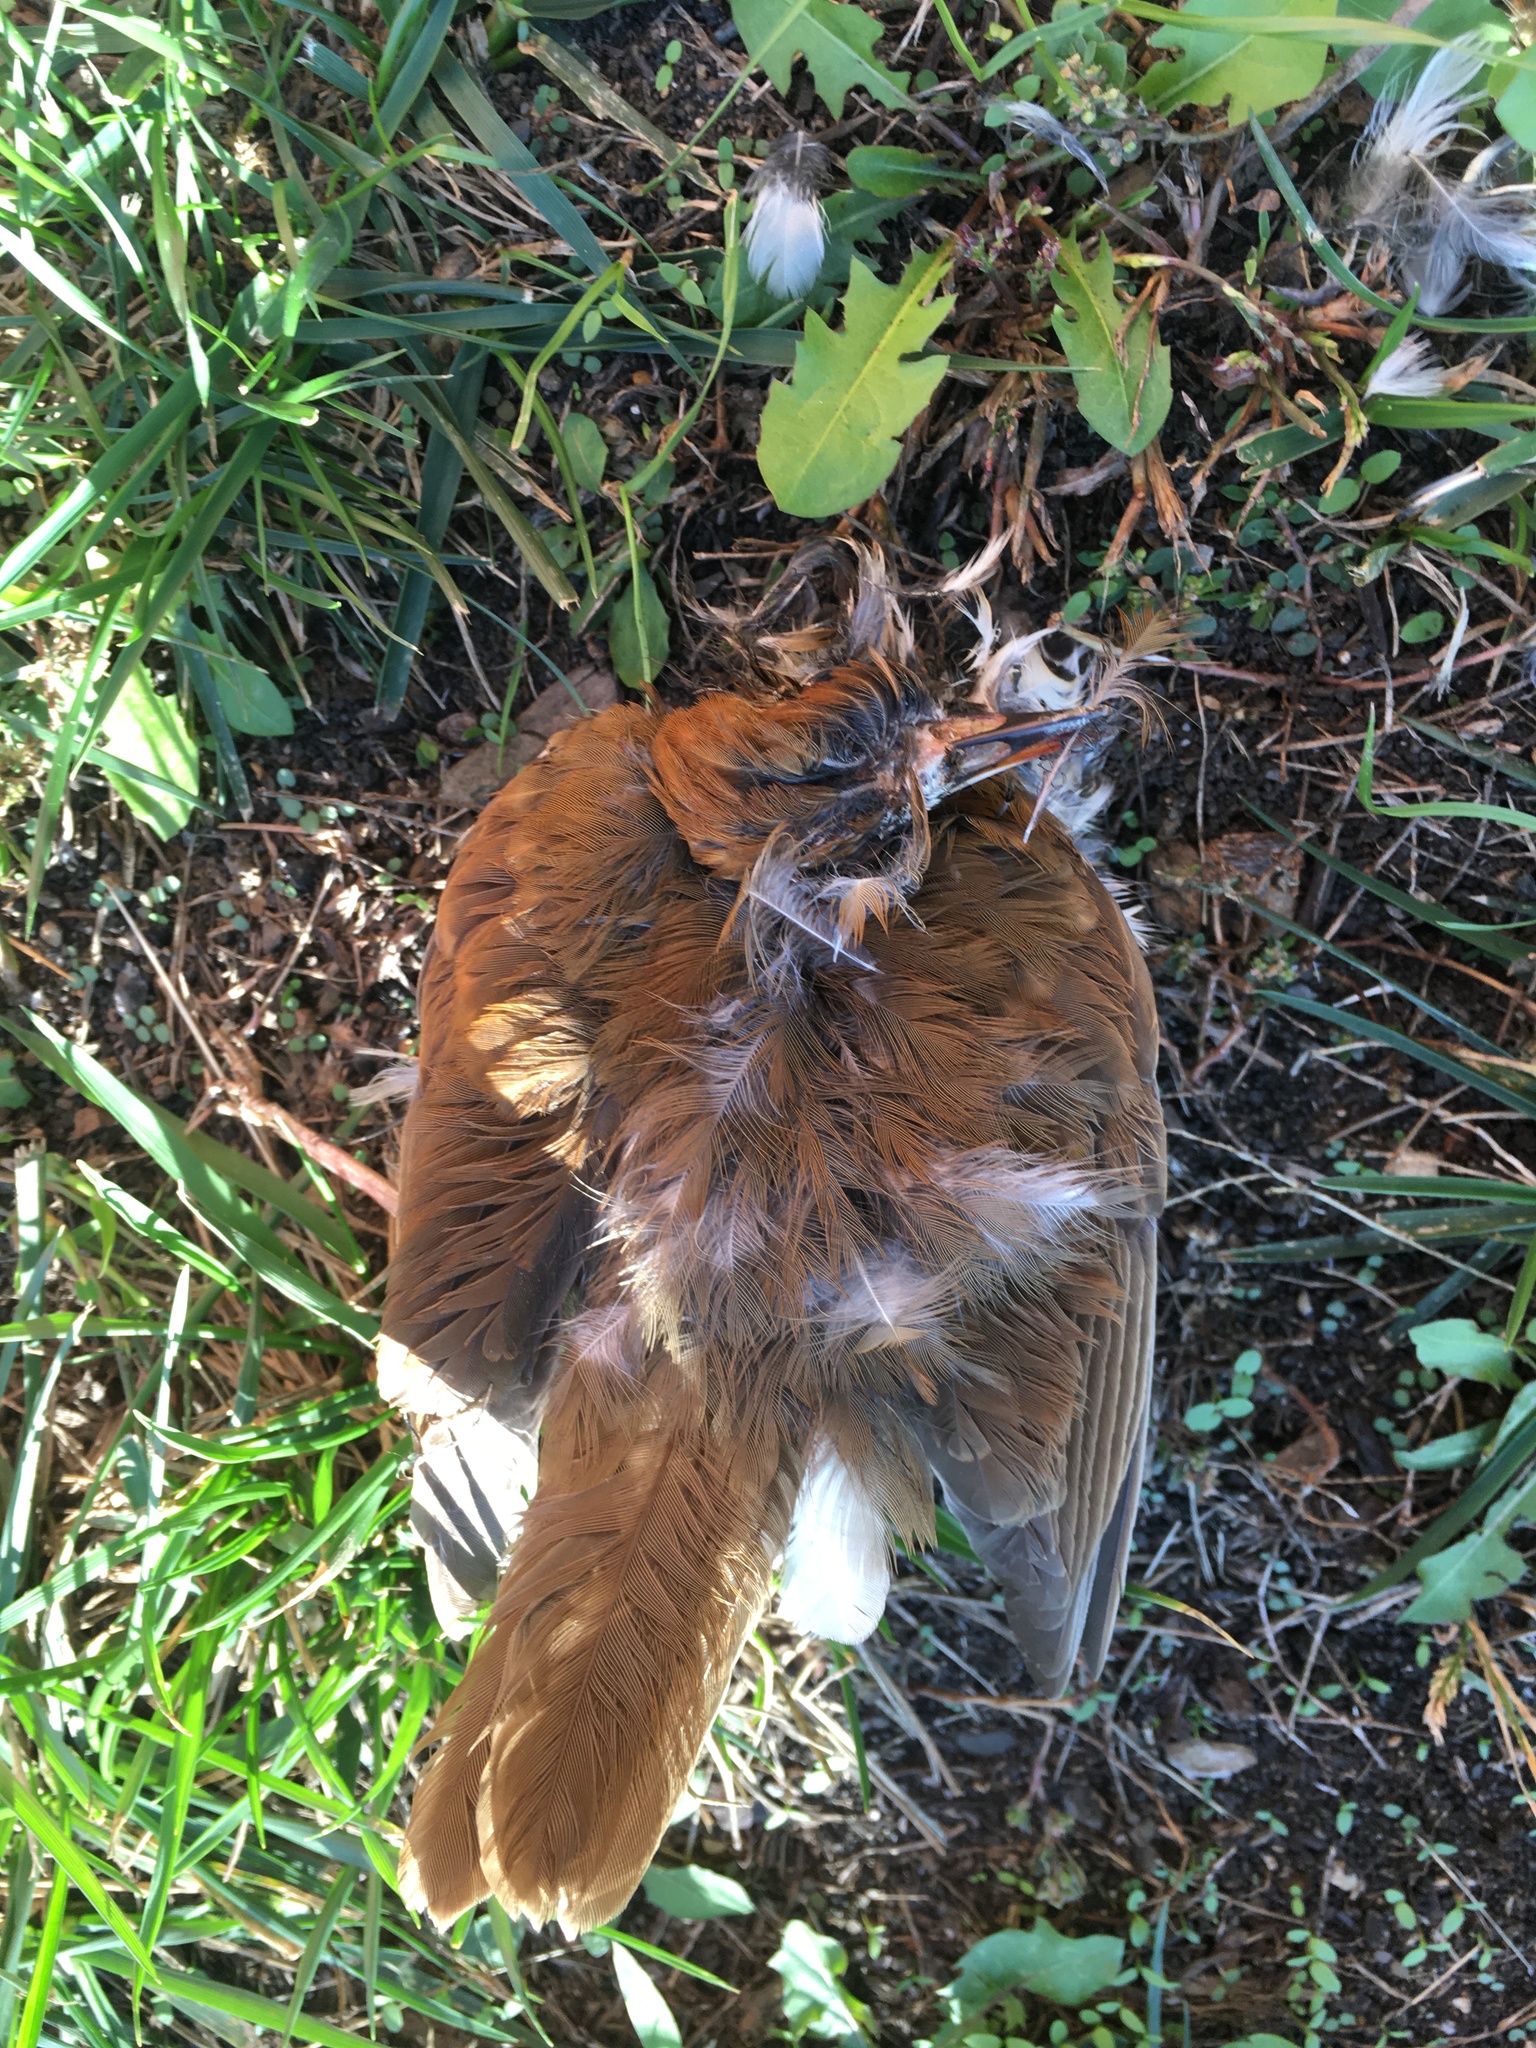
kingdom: Animalia
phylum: Chordata
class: Aves
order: Passeriformes
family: Turdidae
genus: Hylocichla
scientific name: Hylocichla mustelina
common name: Wood thrush
